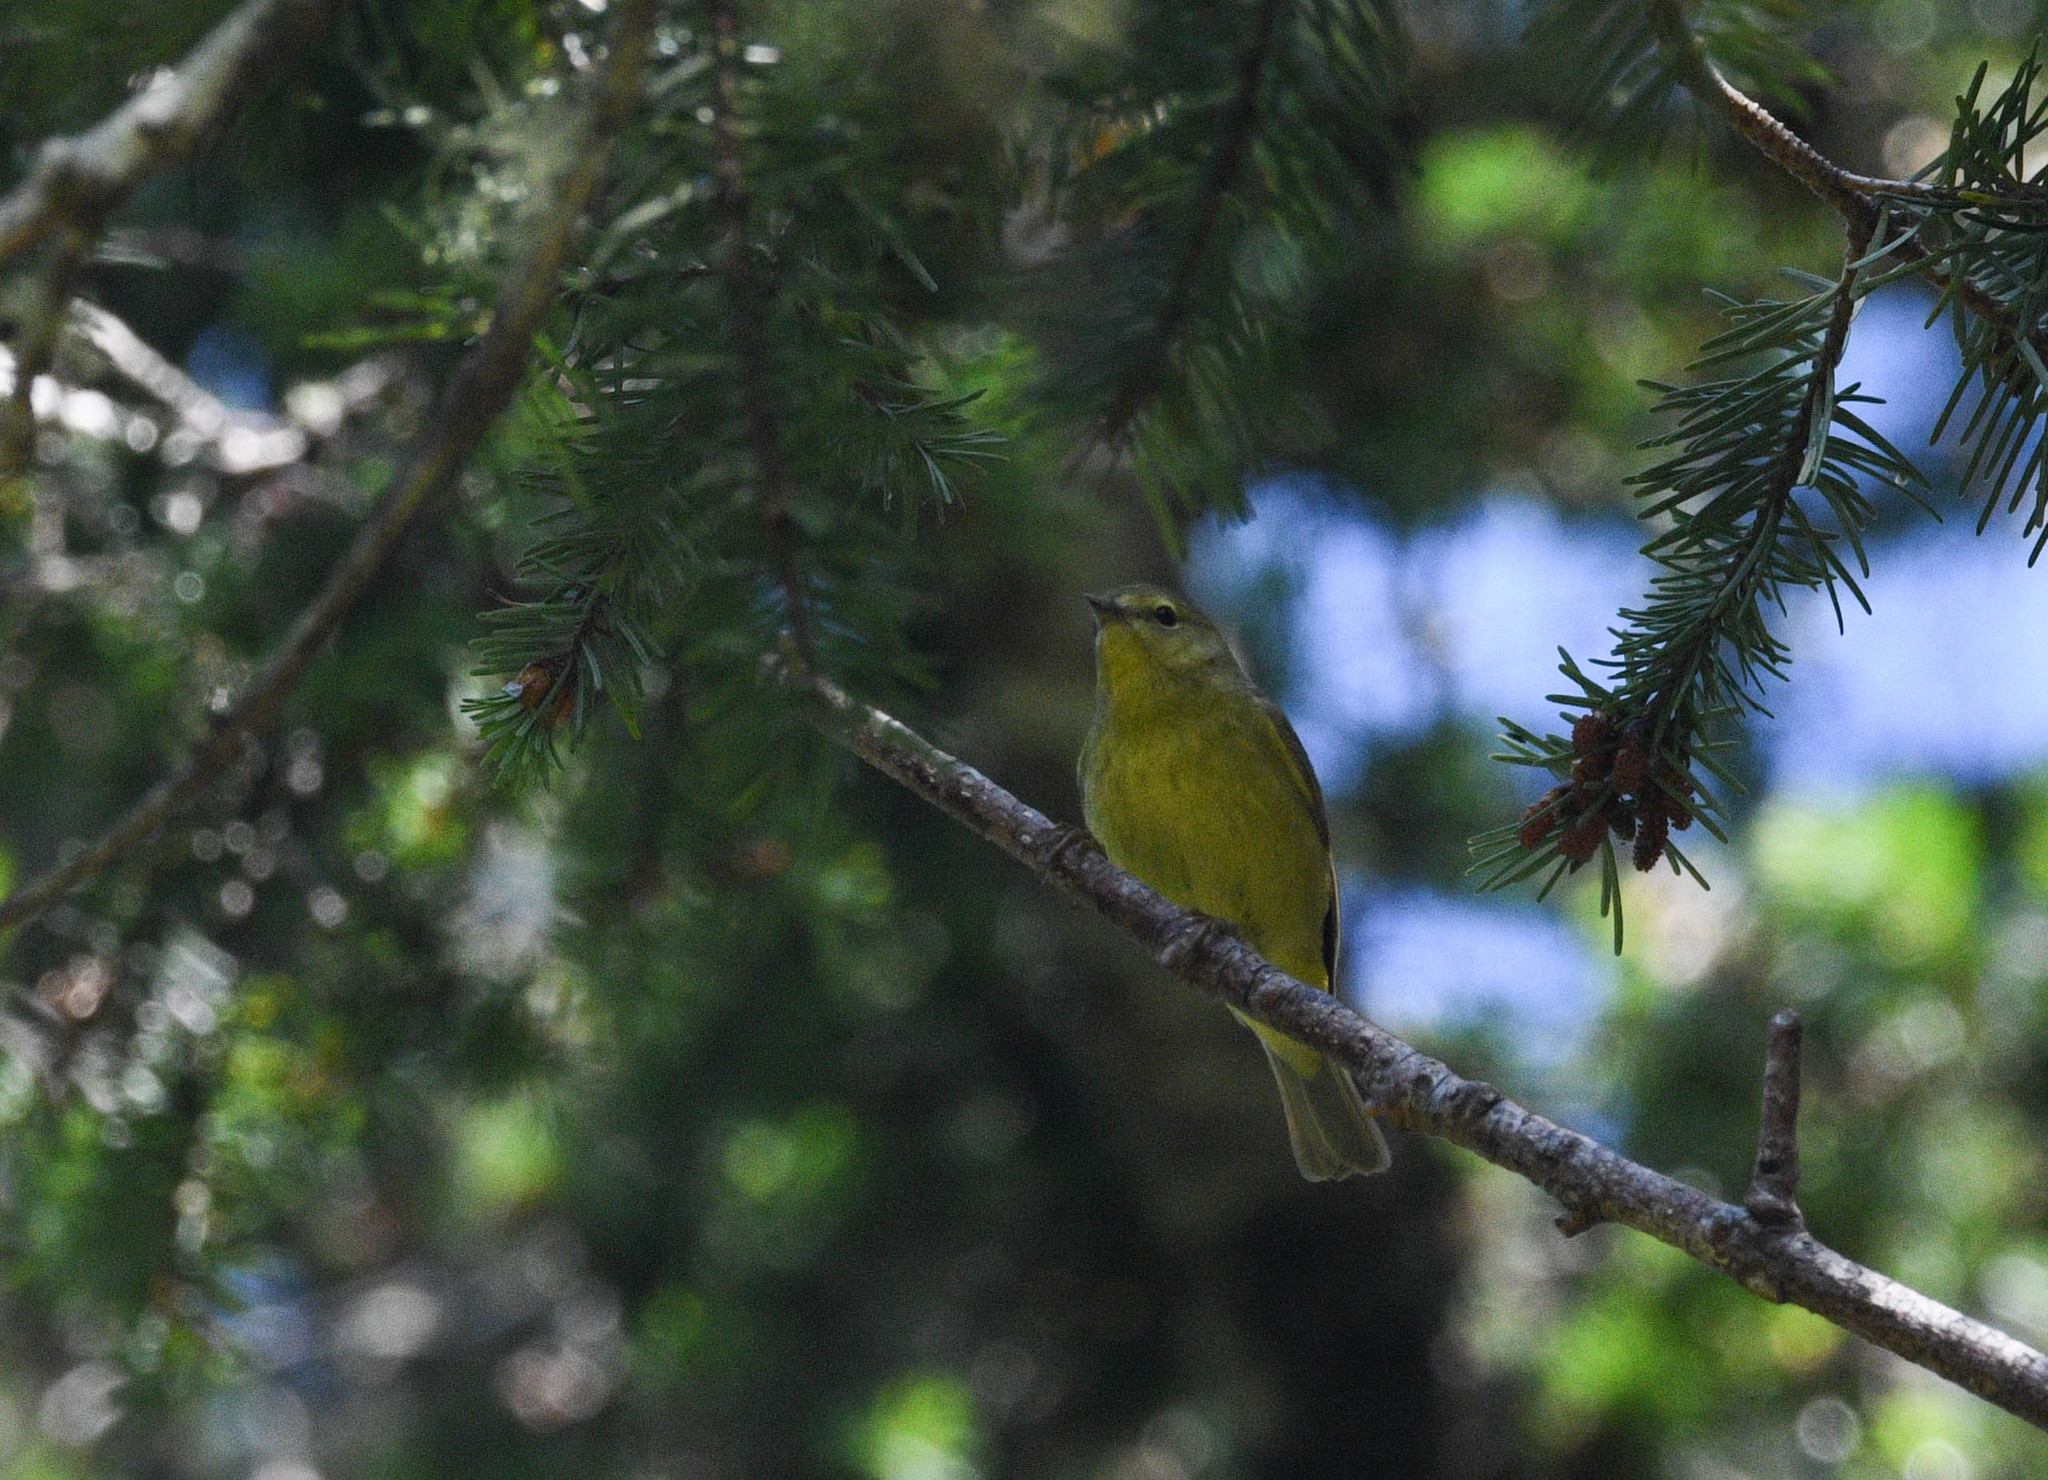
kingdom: Animalia
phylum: Chordata
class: Aves
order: Passeriformes
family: Parulidae
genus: Leiothlypis
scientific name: Leiothlypis celata
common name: Orange-crowned warbler
